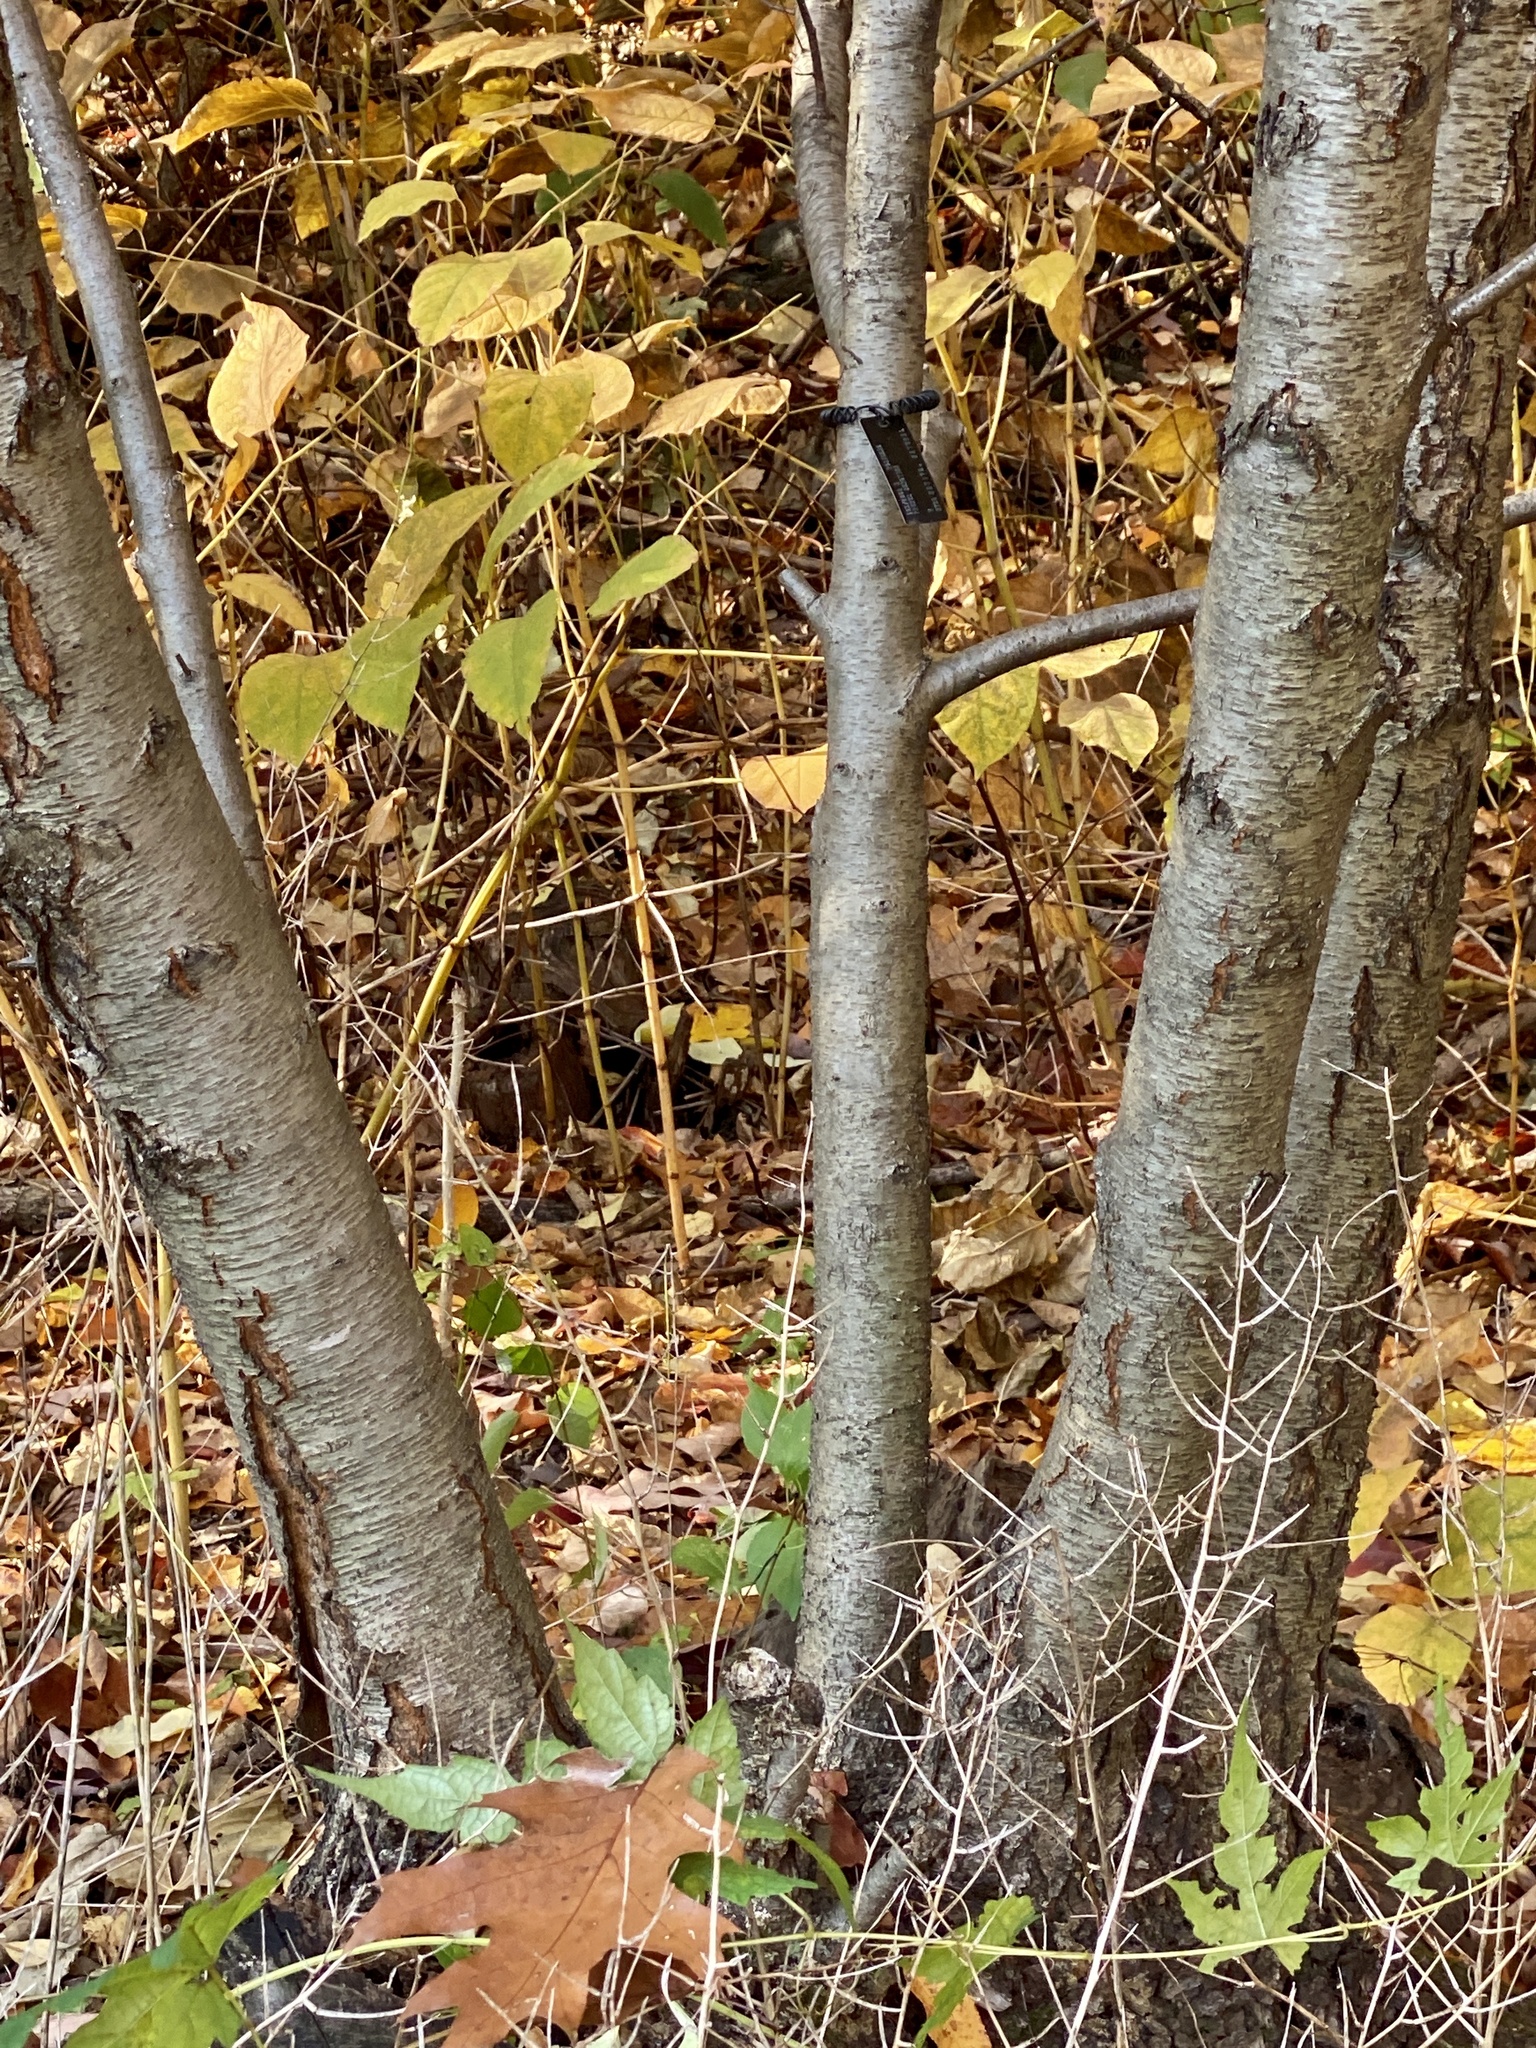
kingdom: Plantae
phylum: Tracheophyta
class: Magnoliopsida
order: Rosales
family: Rosaceae
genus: Prunus
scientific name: Prunus serotina
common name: Black cherry
